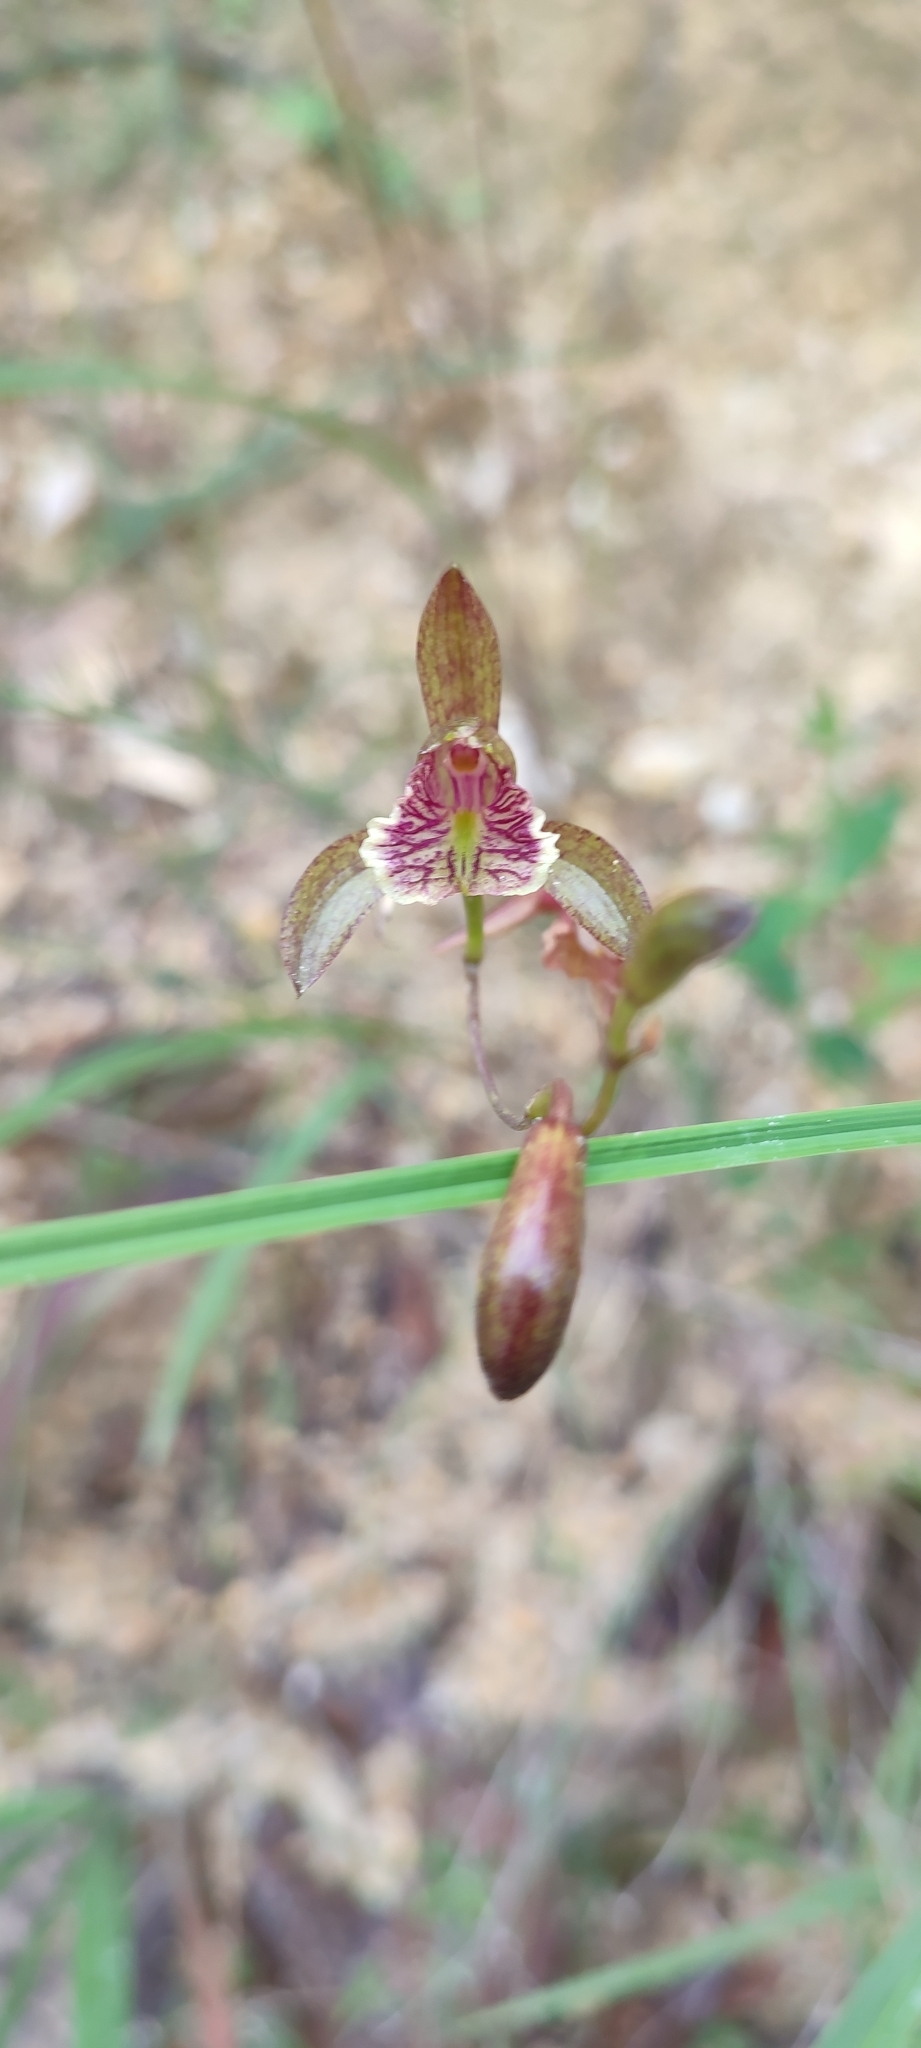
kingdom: Plantae
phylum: Tracheophyta
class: Liliopsida
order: Asparagales
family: Orchidaceae
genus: Bletia
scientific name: Bletia ensifolia
